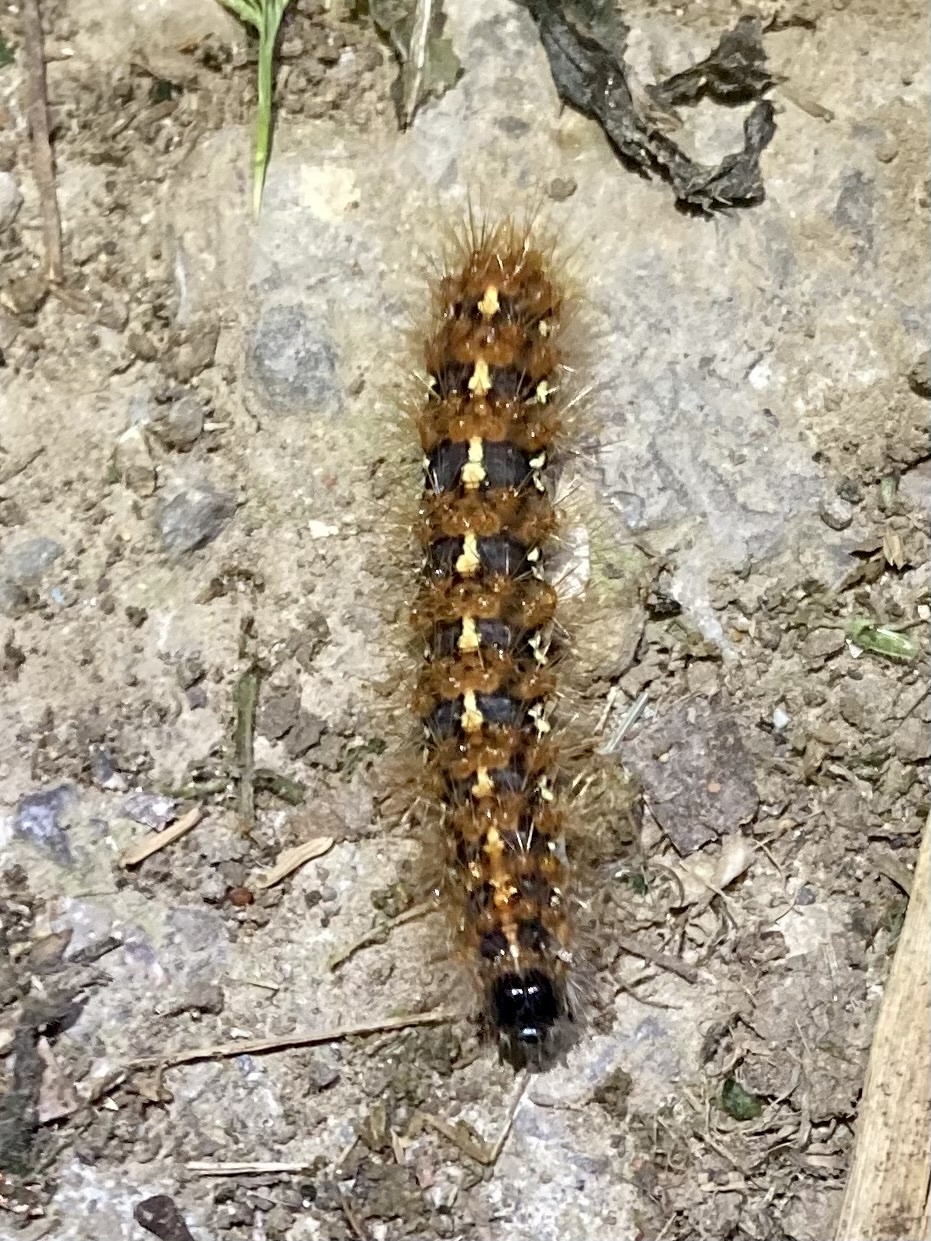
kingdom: Animalia
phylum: Arthropoda
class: Insecta
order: Lepidoptera
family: Erebidae
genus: Euplagia
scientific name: Euplagia quadripunctaria
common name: Jersey tiger
